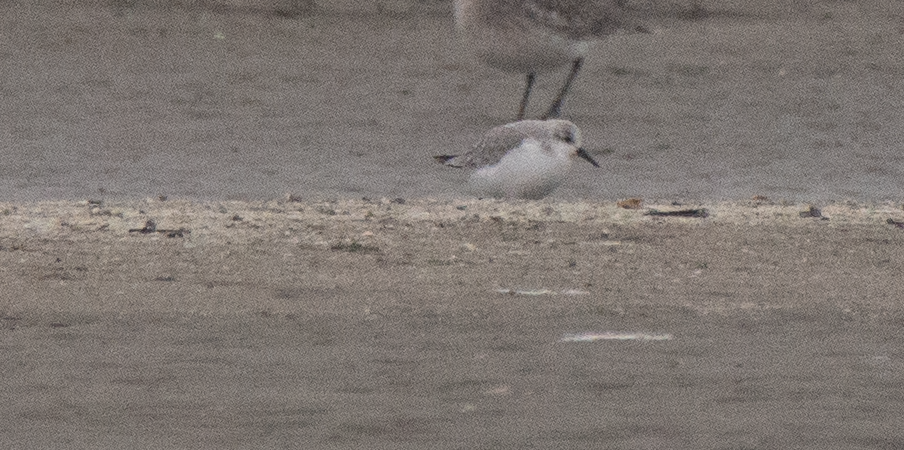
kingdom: Animalia
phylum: Chordata
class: Aves
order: Charadriiformes
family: Scolopacidae
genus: Calidris
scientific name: Calidris alba
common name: Sanderling
